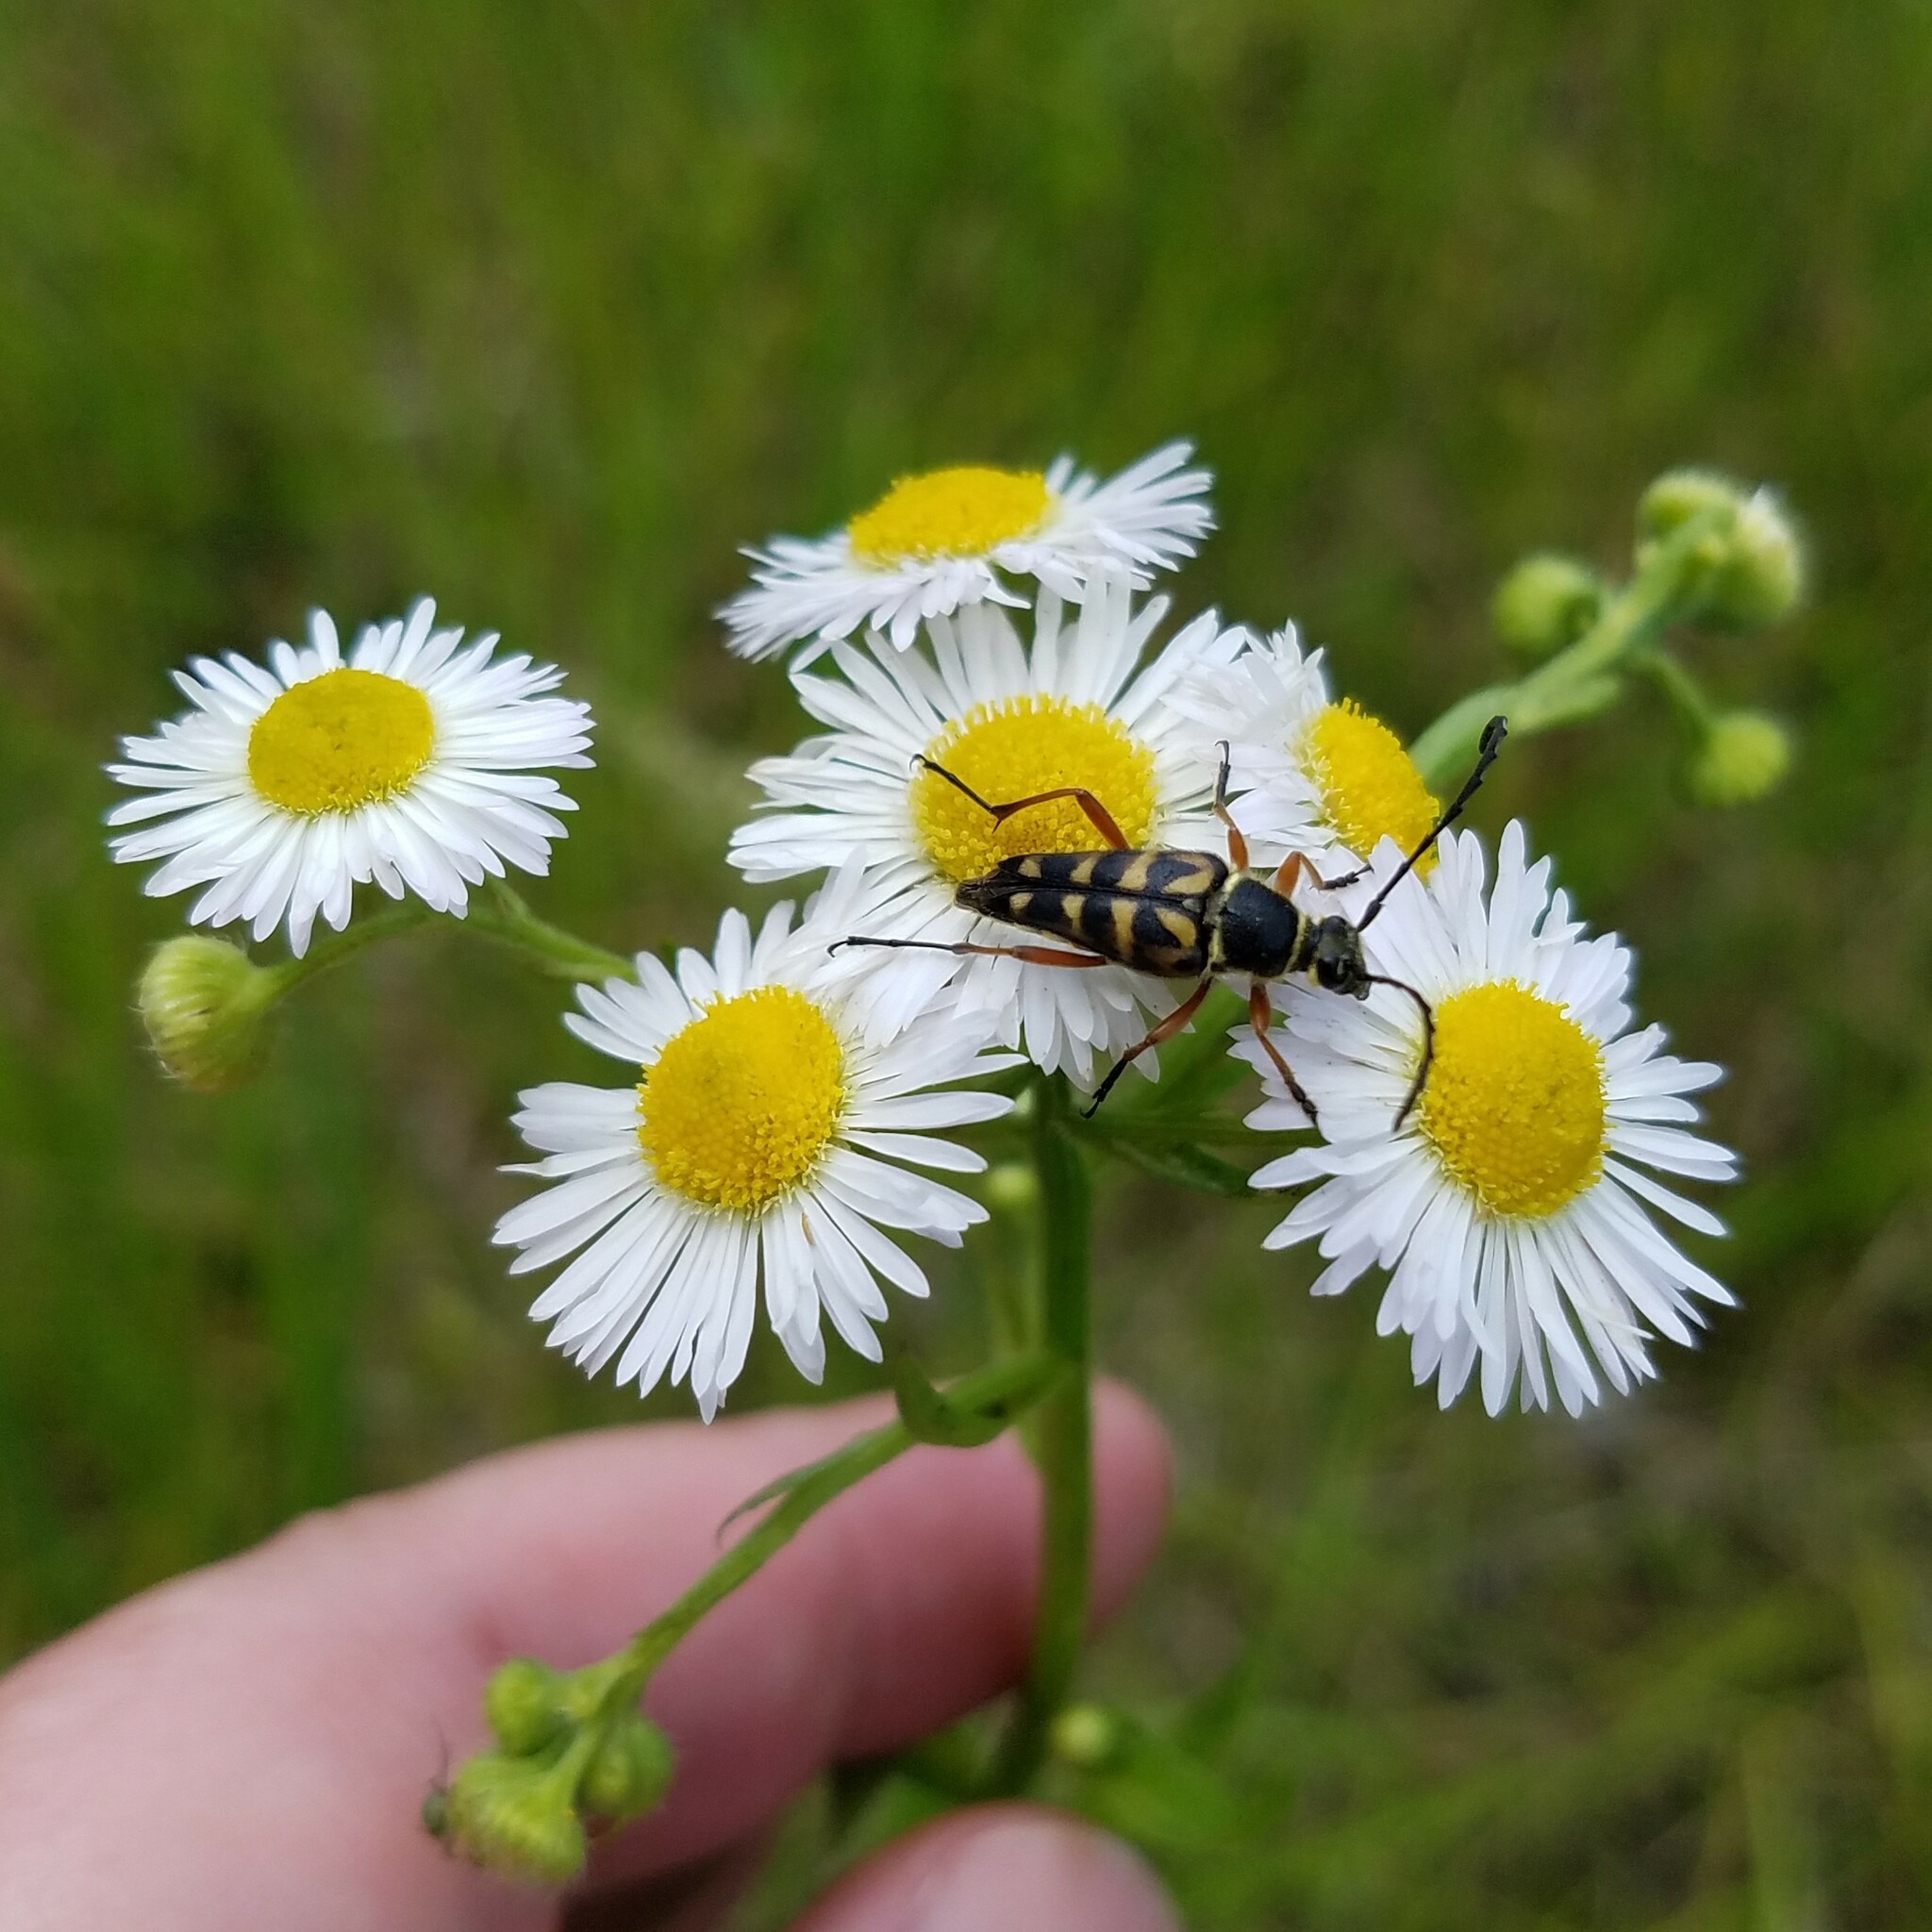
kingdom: Animalia
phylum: Arthropoda
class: Insecta
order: Coleoptera
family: Cerambycidae
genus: Typocerus
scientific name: Typocerus zebra
